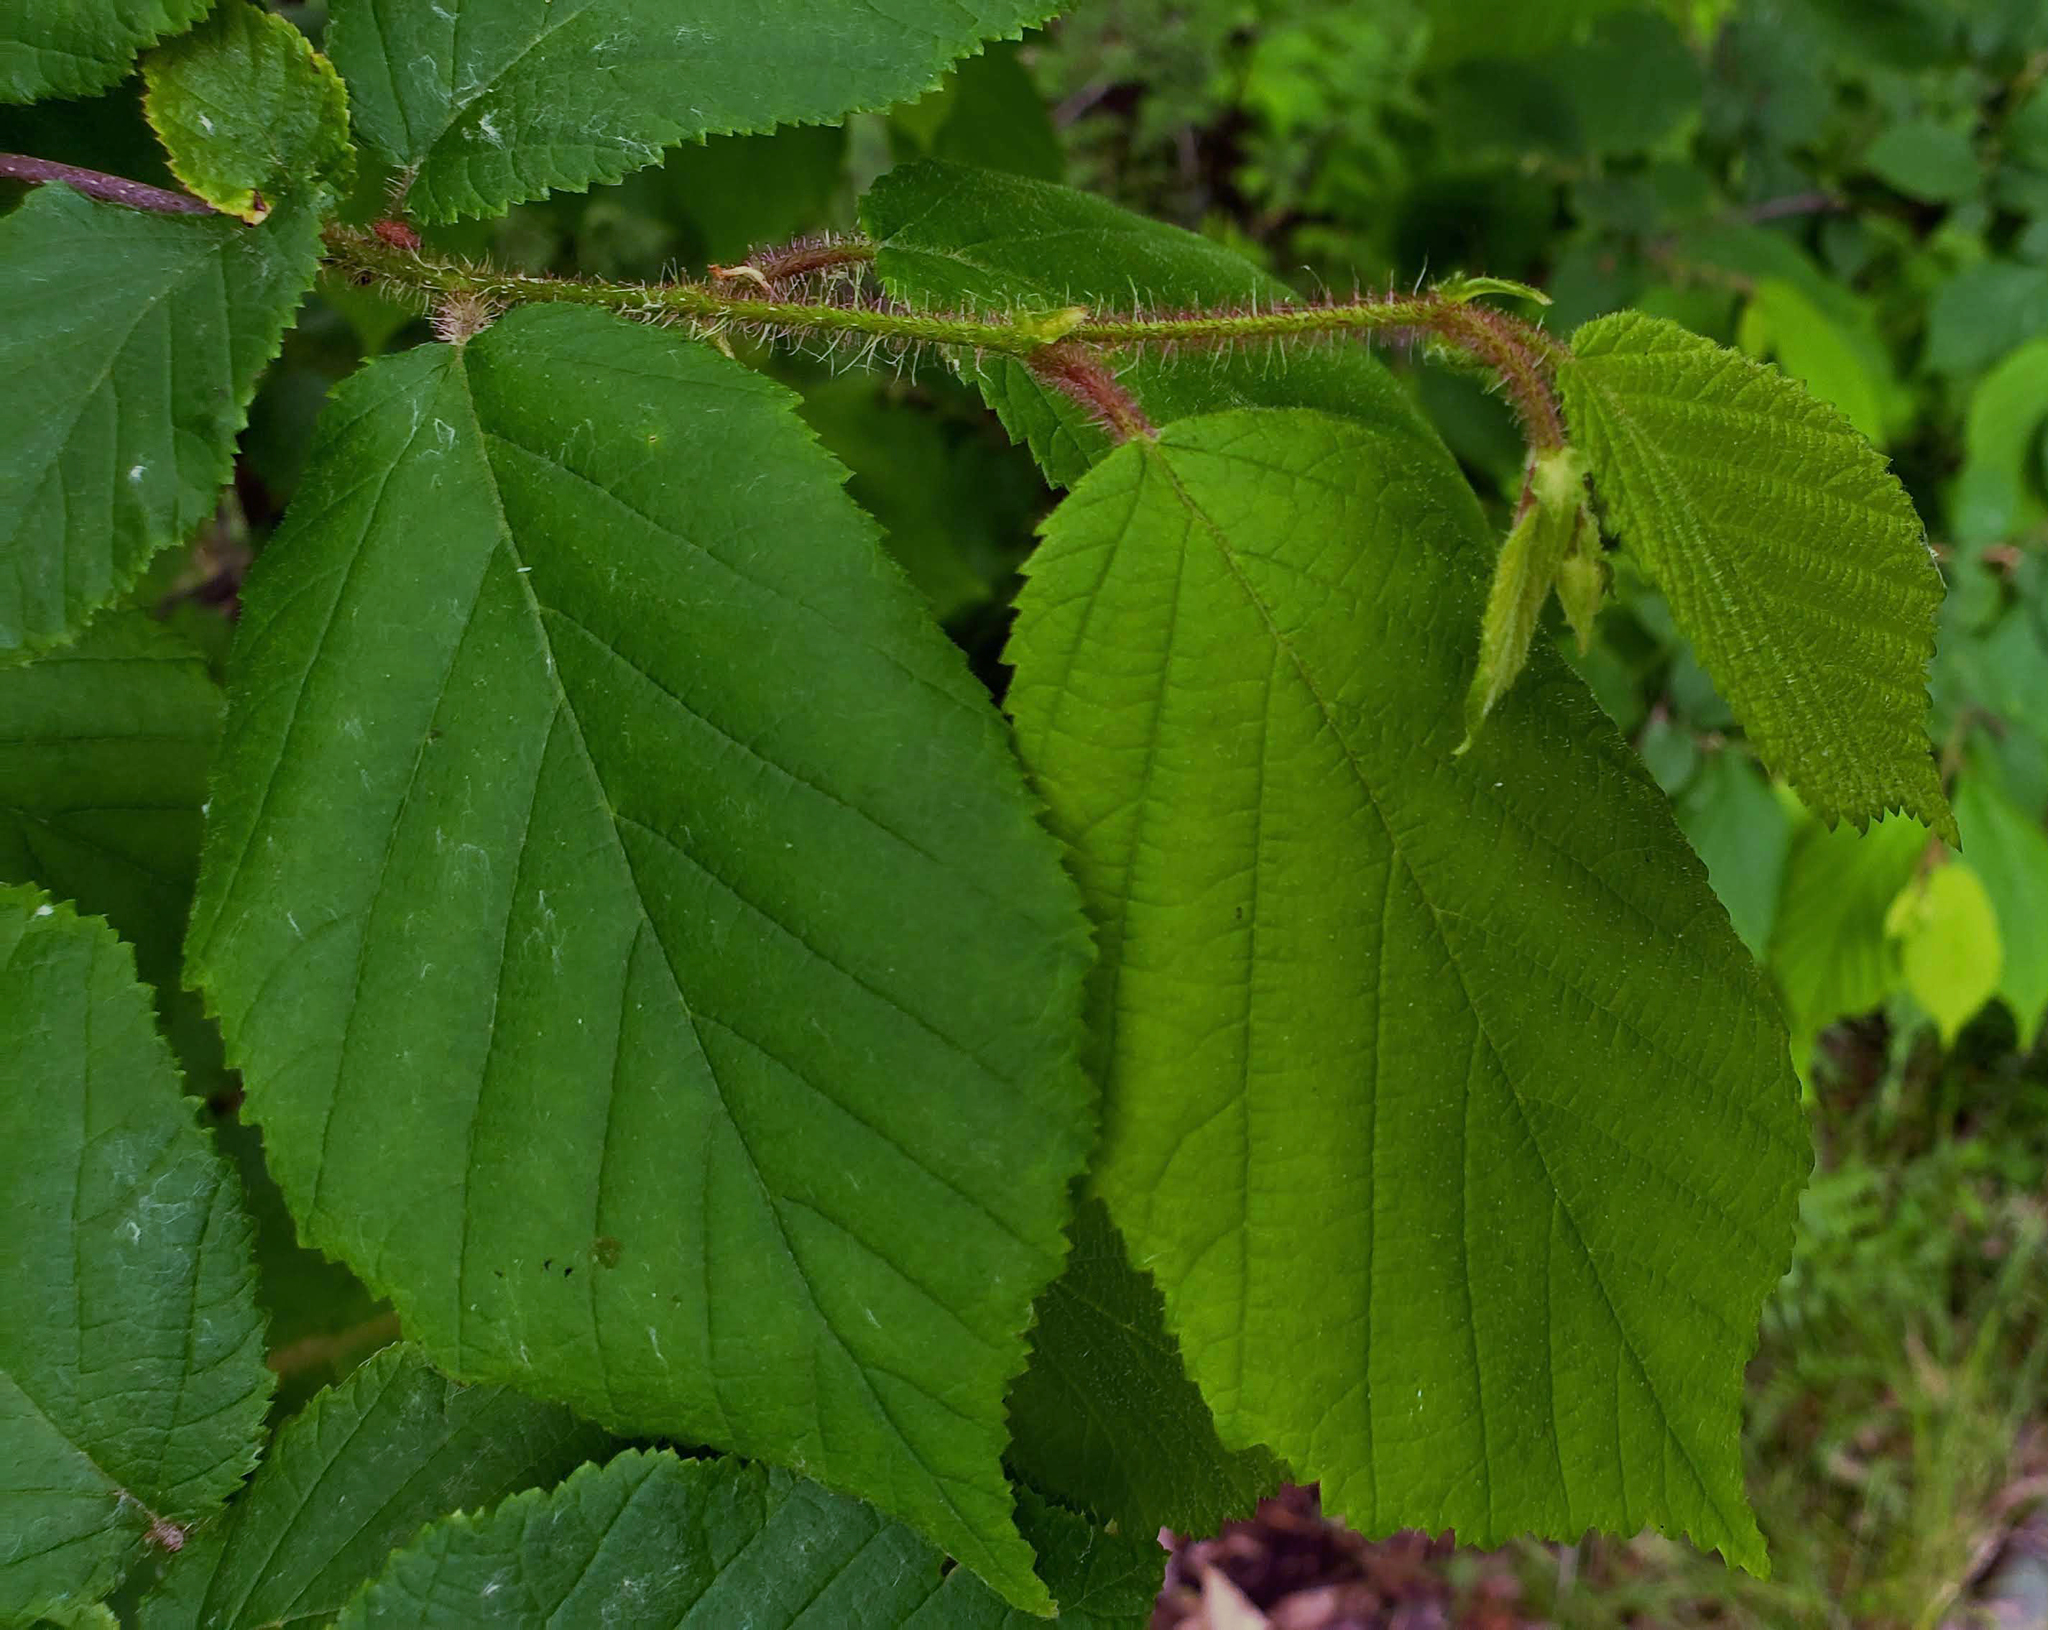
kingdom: Plantae
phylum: Tracheophyta
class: Magnoliopsida
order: Fagales
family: Betulaceae
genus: Corylus
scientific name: Corylus americana
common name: American hazel
